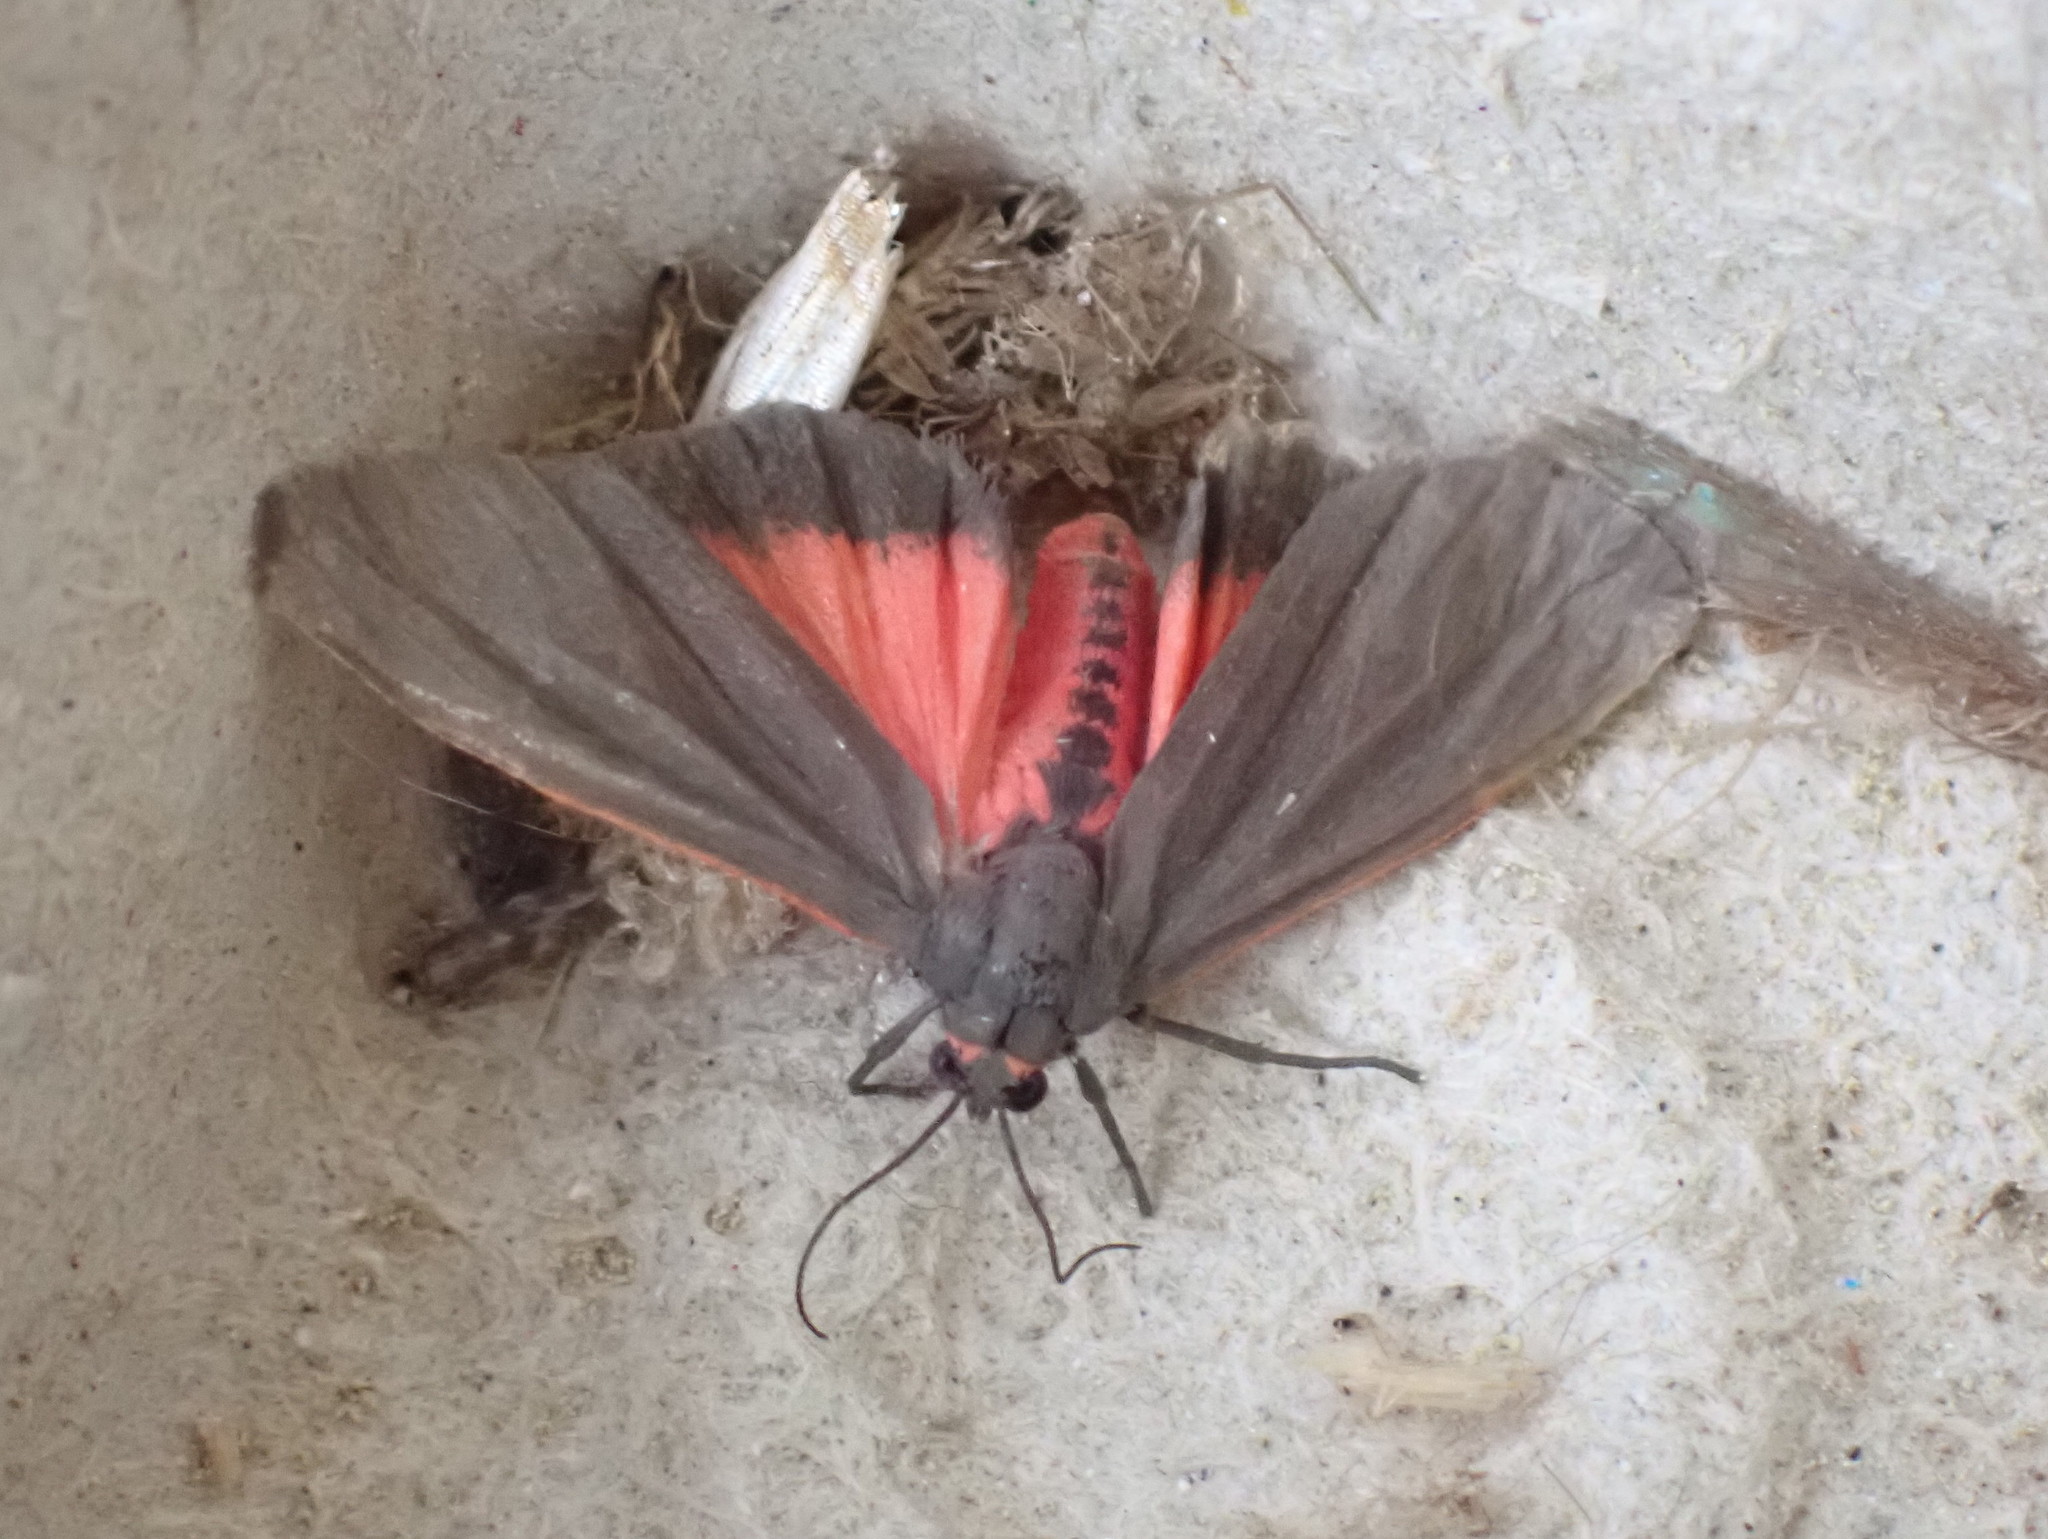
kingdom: Animalia
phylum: Arthropoda
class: Insecta
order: Lepidoptera
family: Erebidae
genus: Virbia
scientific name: Virbia laeta
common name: Joyful holomelina moth
